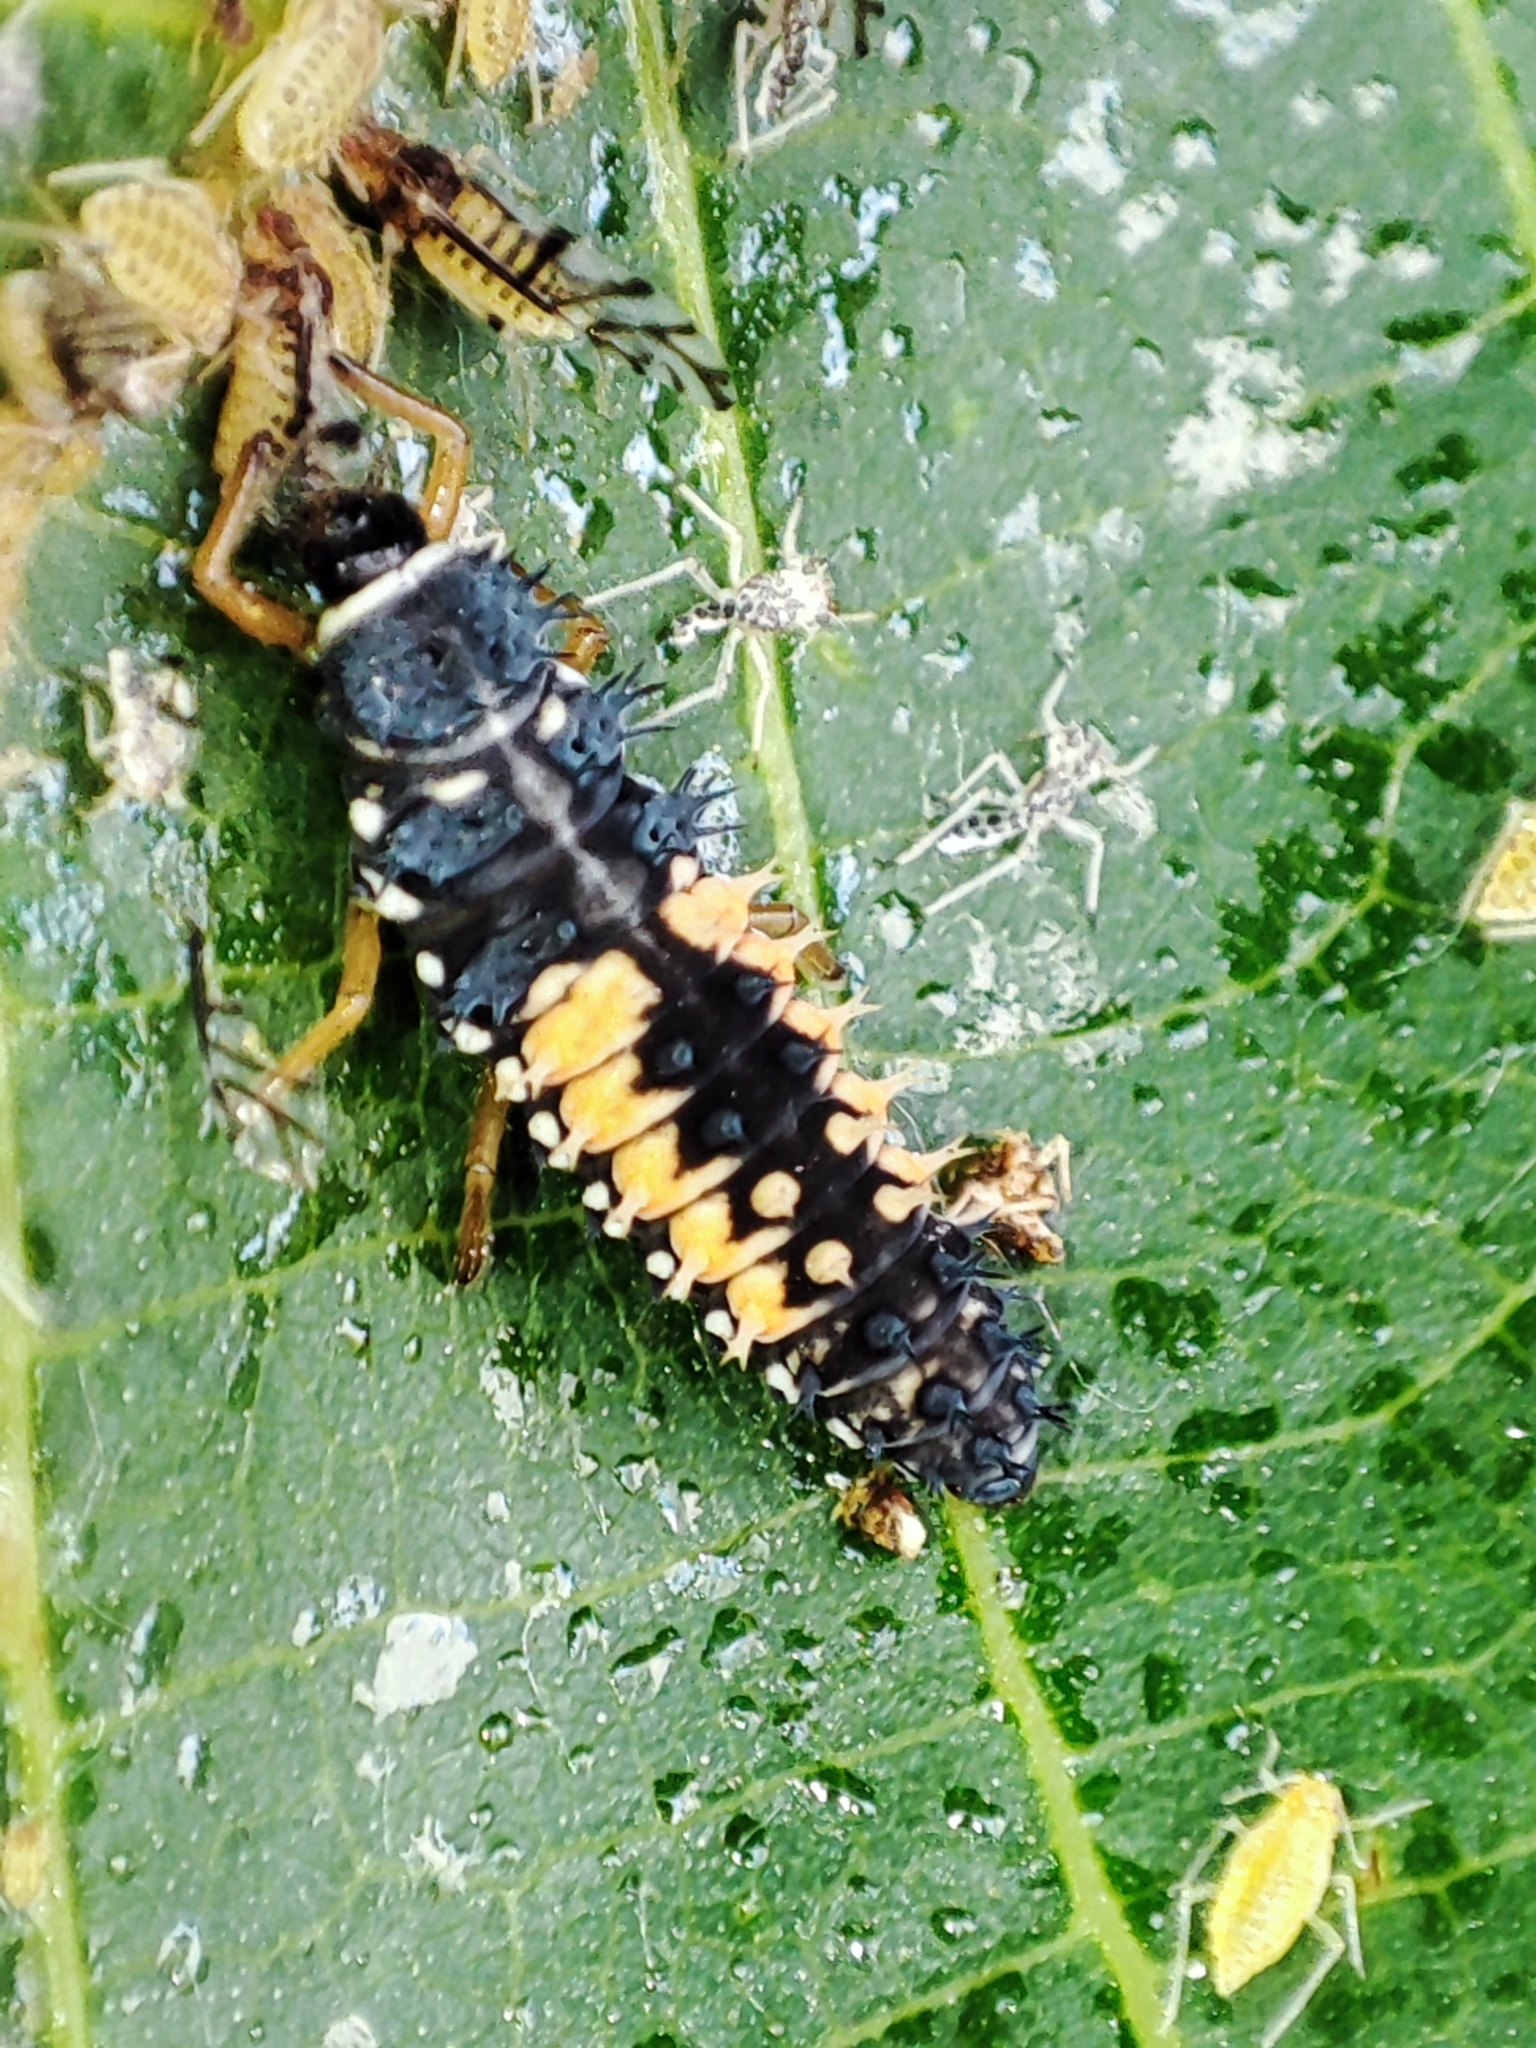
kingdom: Animalia
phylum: Arthropoda
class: Insecta
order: Coleoptera
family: Coccinellidae
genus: Harmonia
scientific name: Harmonia axyridis
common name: Harlequin ladybird
